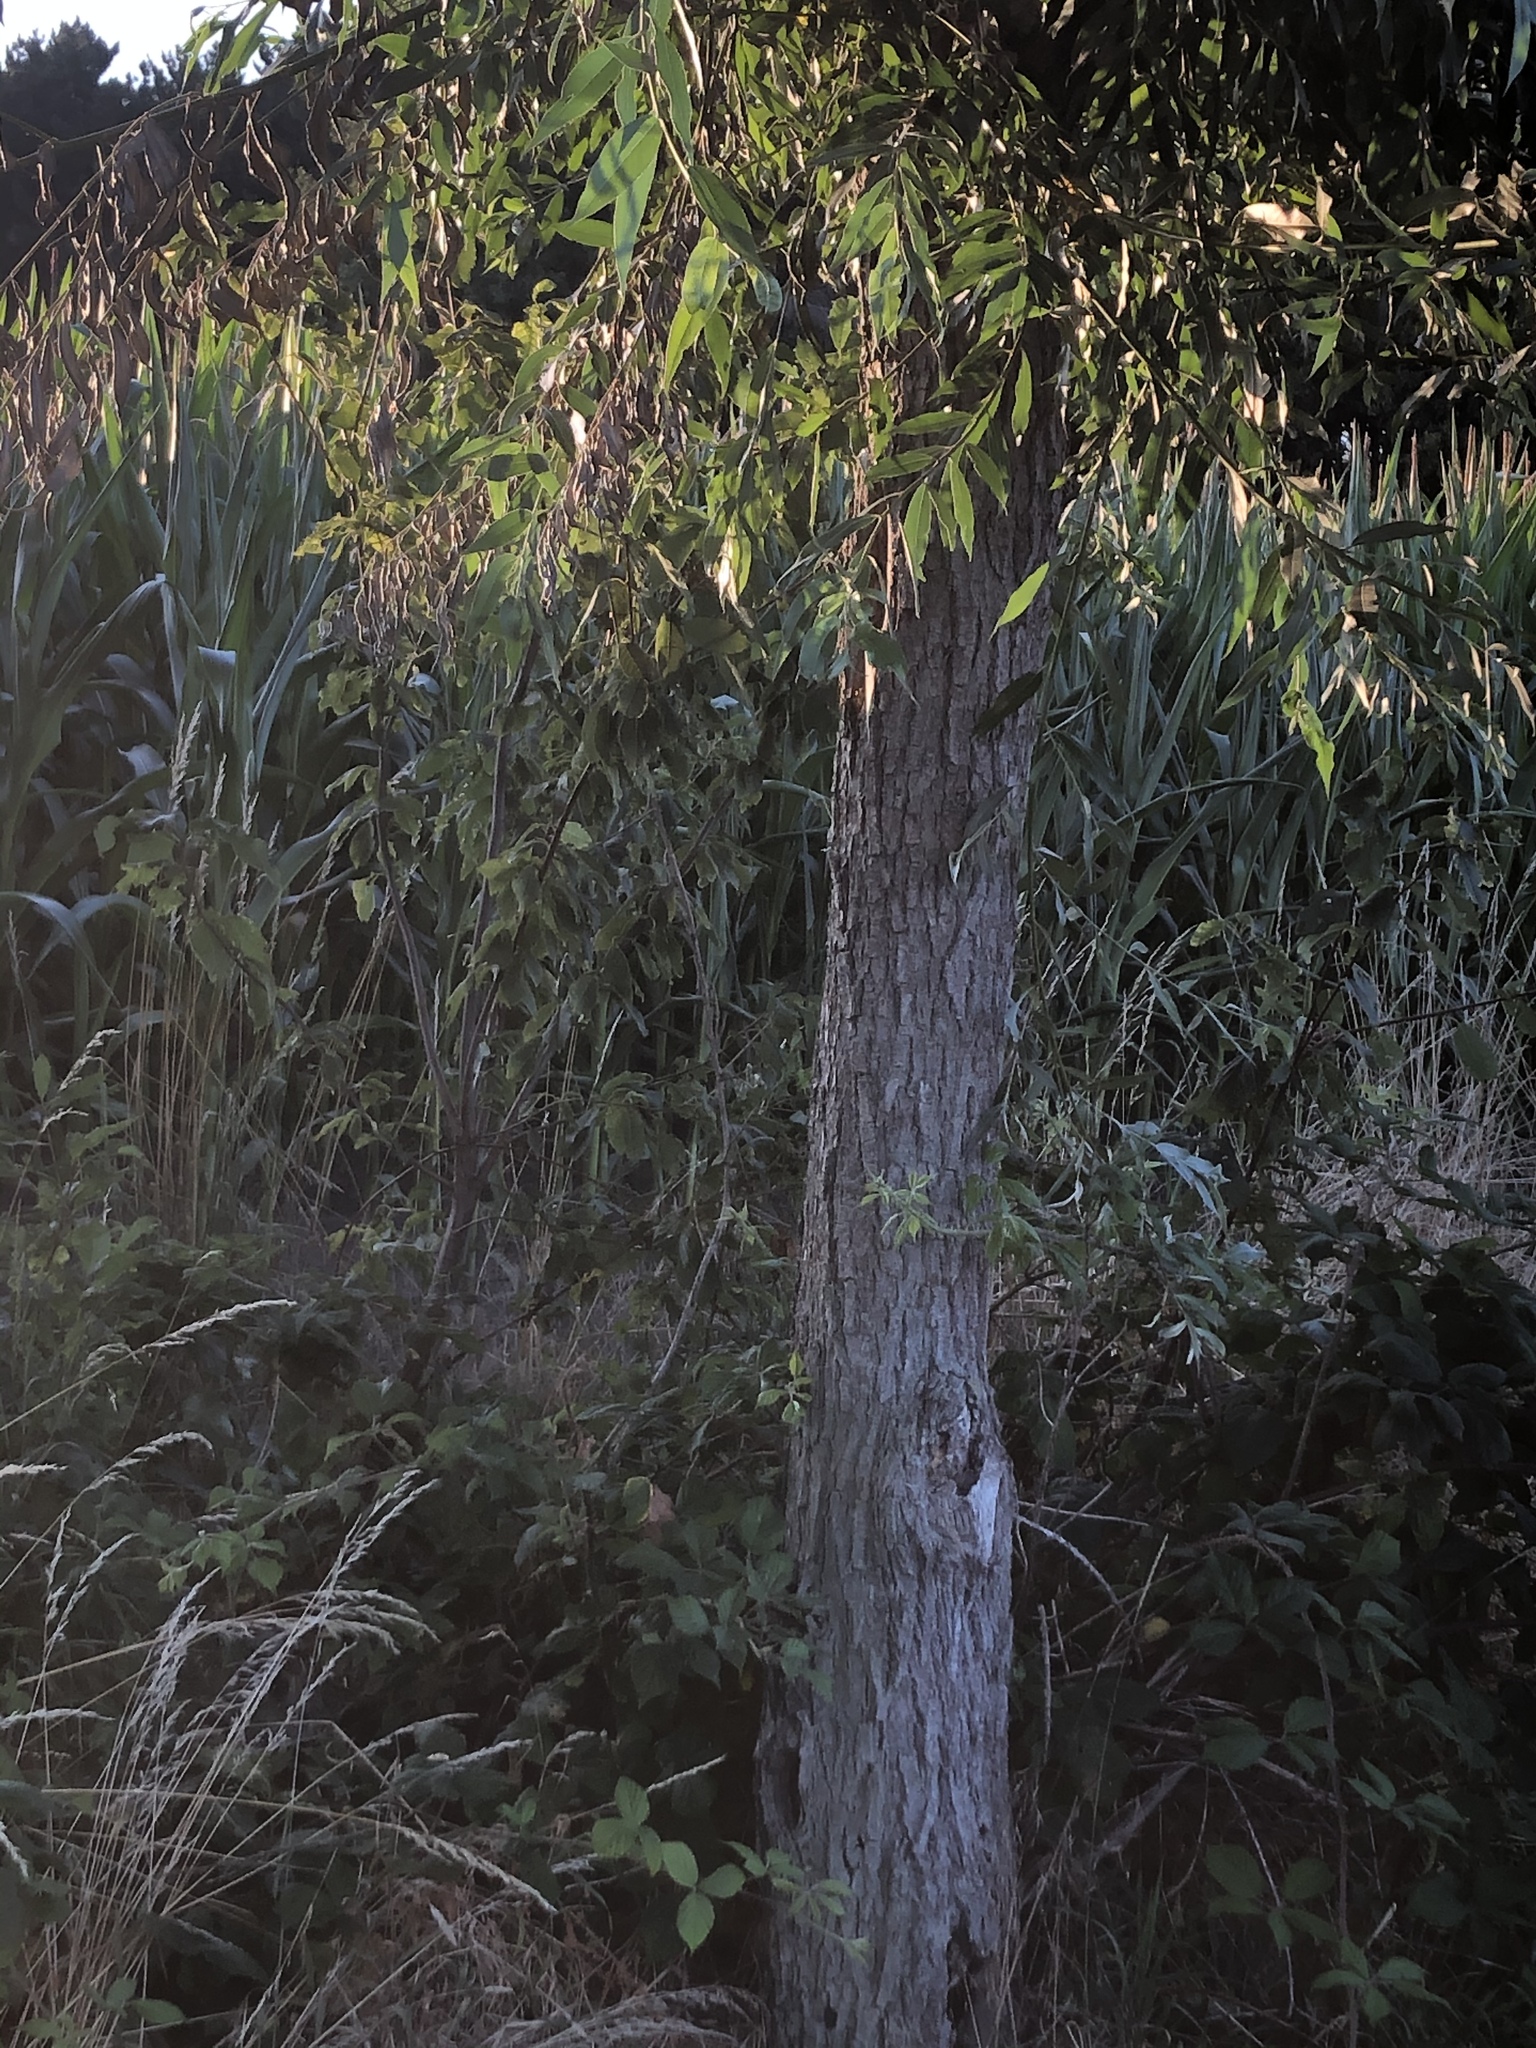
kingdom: Animalia
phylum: Arthropoda
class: Insecta
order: Hymenoptera
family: Vespidae
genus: Vespa
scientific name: Vespa crabro
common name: Hornet
